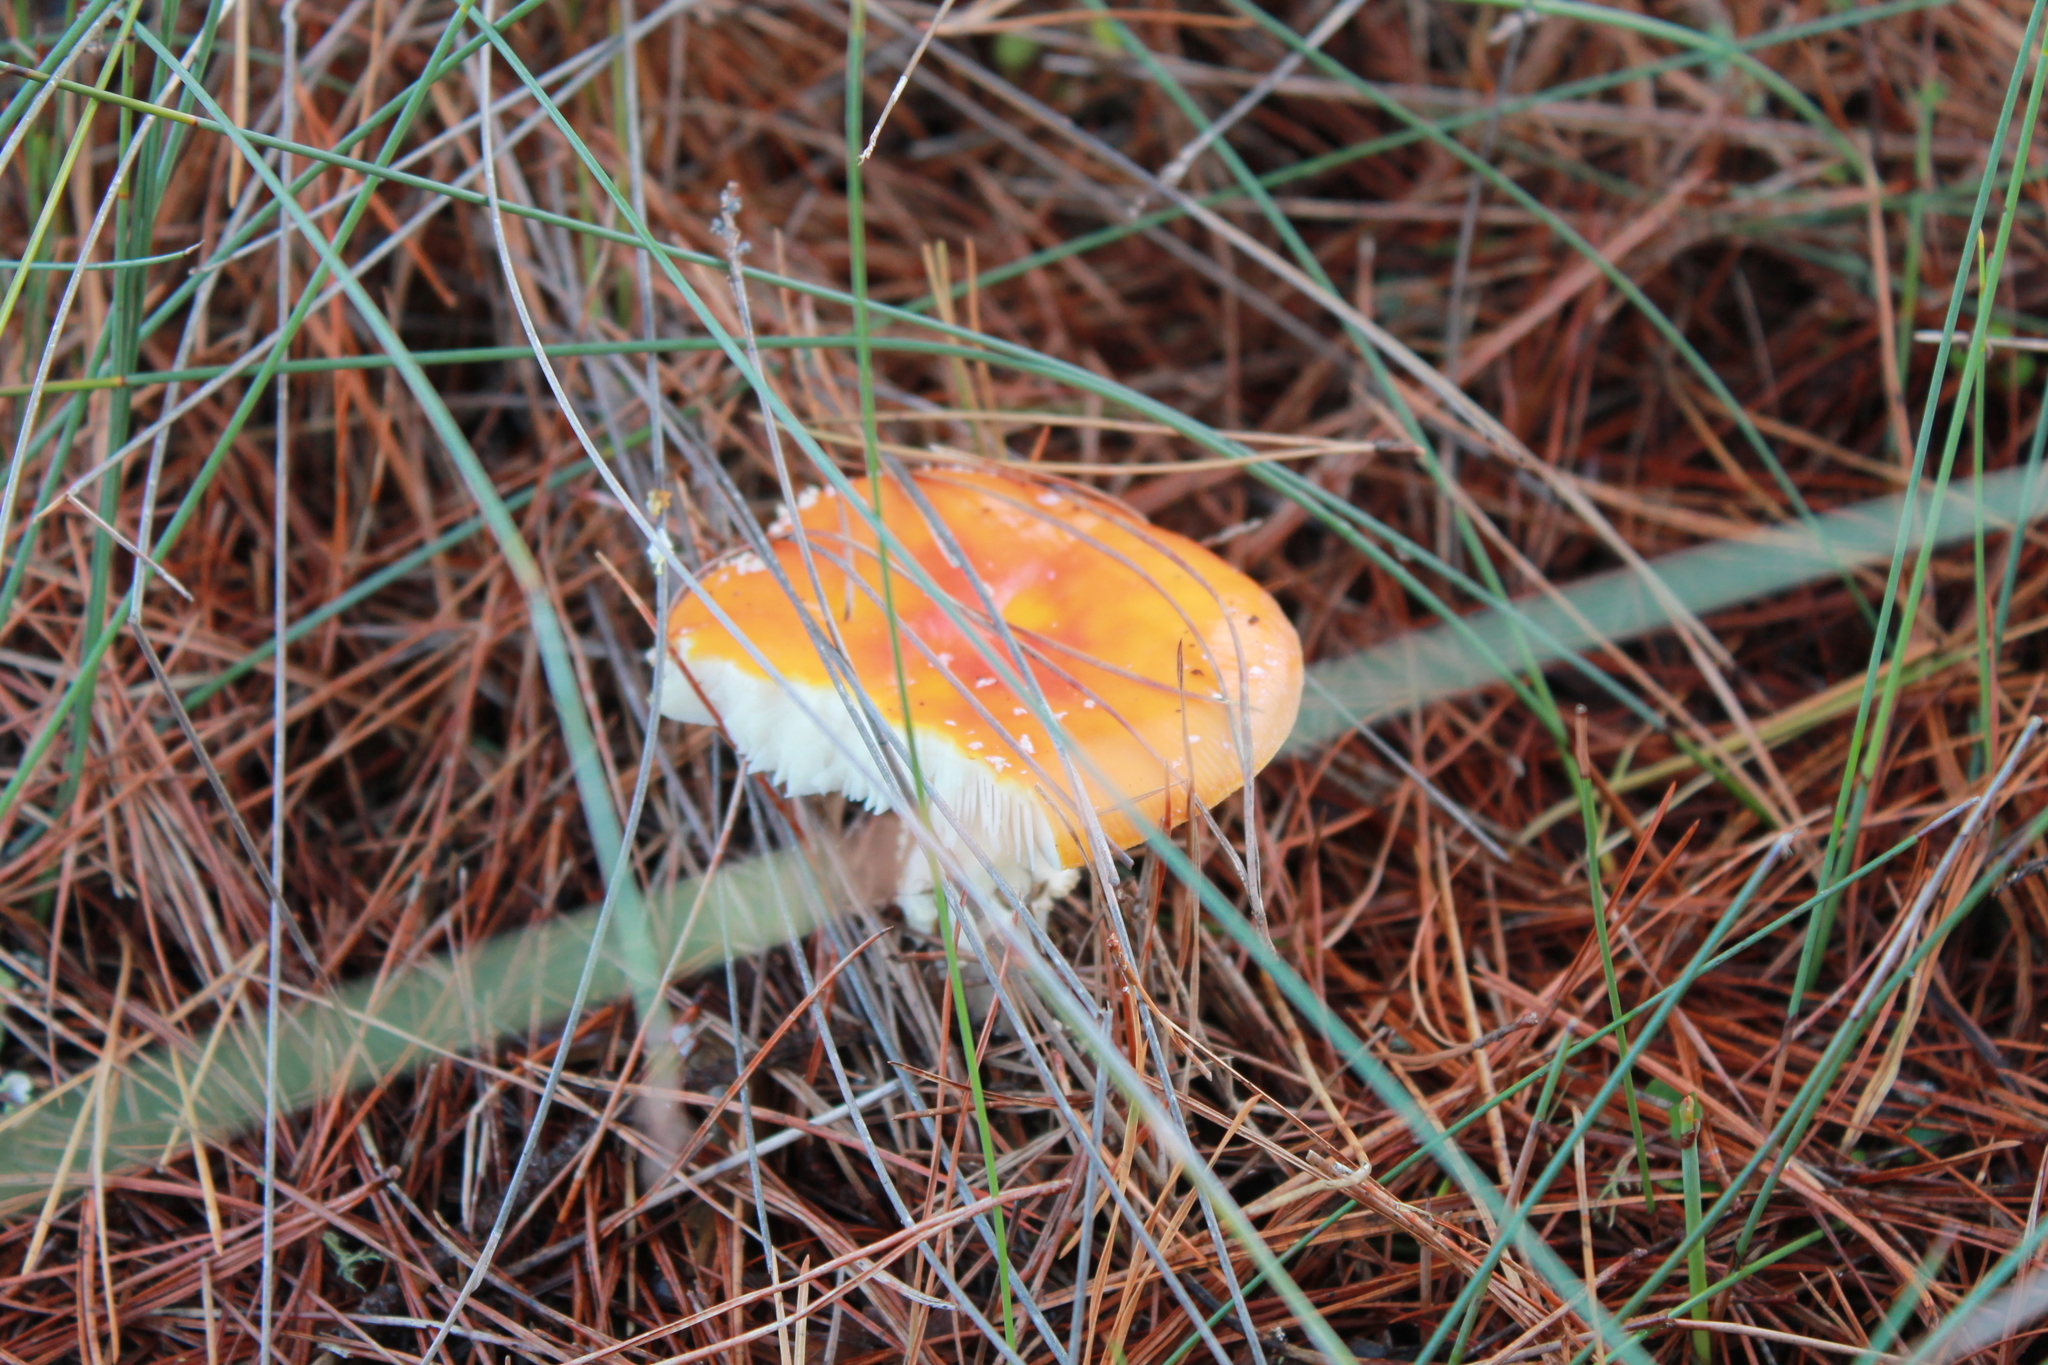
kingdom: Fungi
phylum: Basidiomycota
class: Agaricomycetes
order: Agaricales
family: Amanitaceae
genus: Amanita
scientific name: Amanita muscaria
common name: Fly agaric
